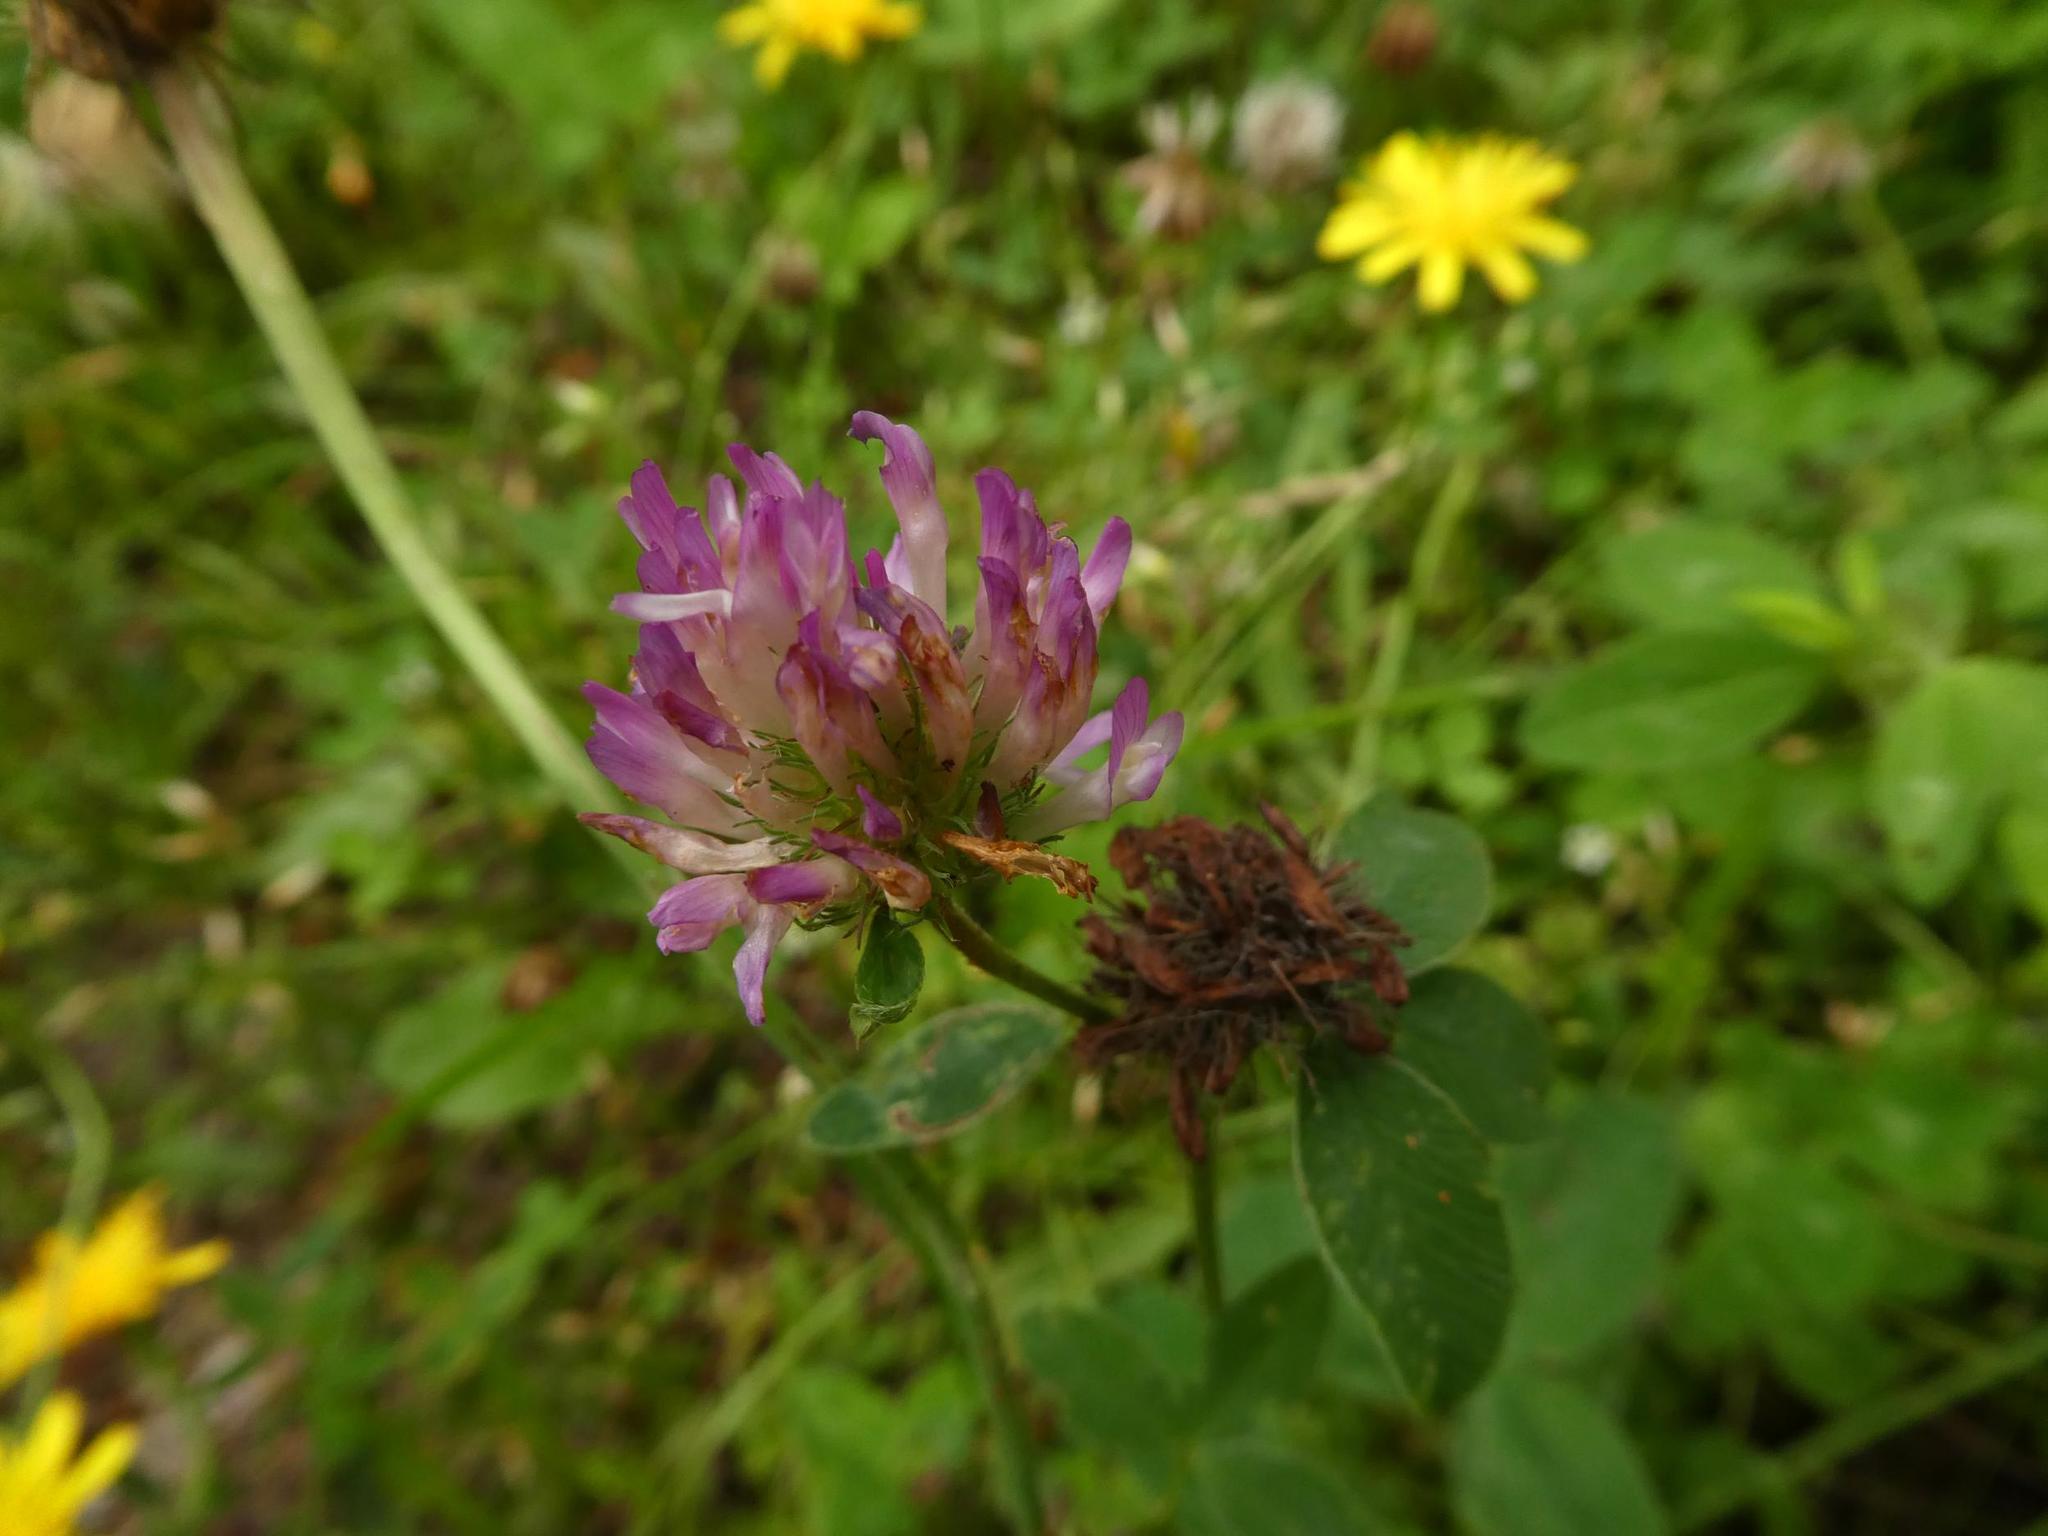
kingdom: Plantae
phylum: Tracheophyta
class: Magnoliopsida
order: Fabales
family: Fabaceae
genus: Trifolium
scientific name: Trifolium pratense
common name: Red clover
